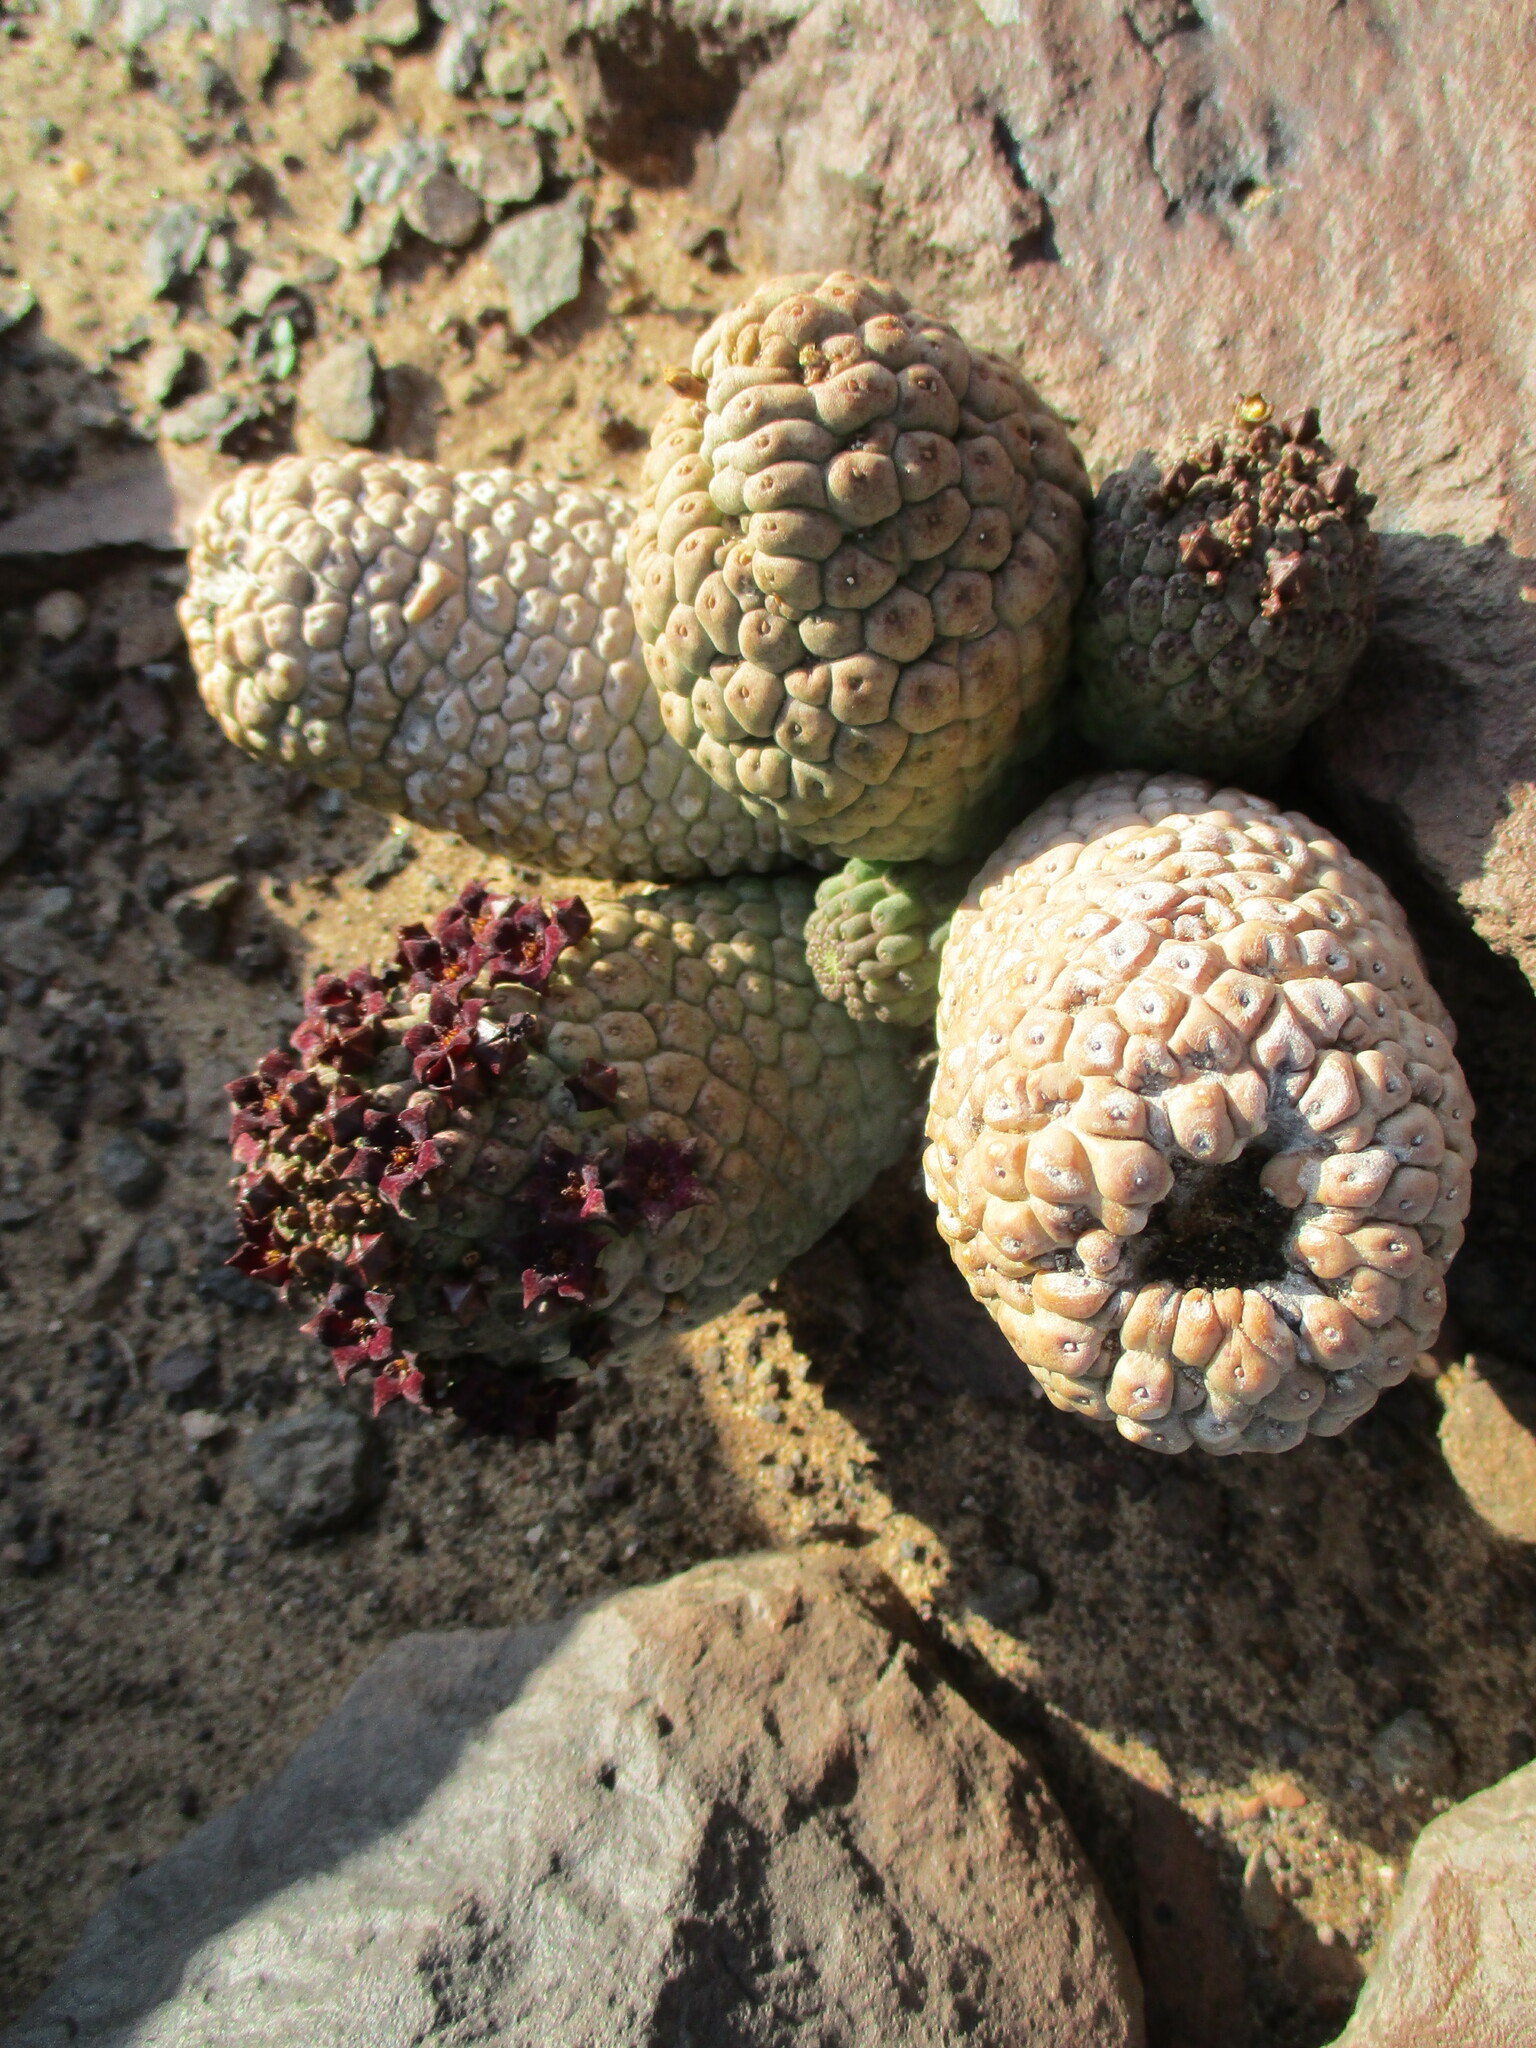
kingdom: Plantae
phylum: Tracheophyta
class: Magnoliopsida
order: Gentianales
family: Apocynaceae
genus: Ceropegia
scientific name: Ceropegia marlothii
